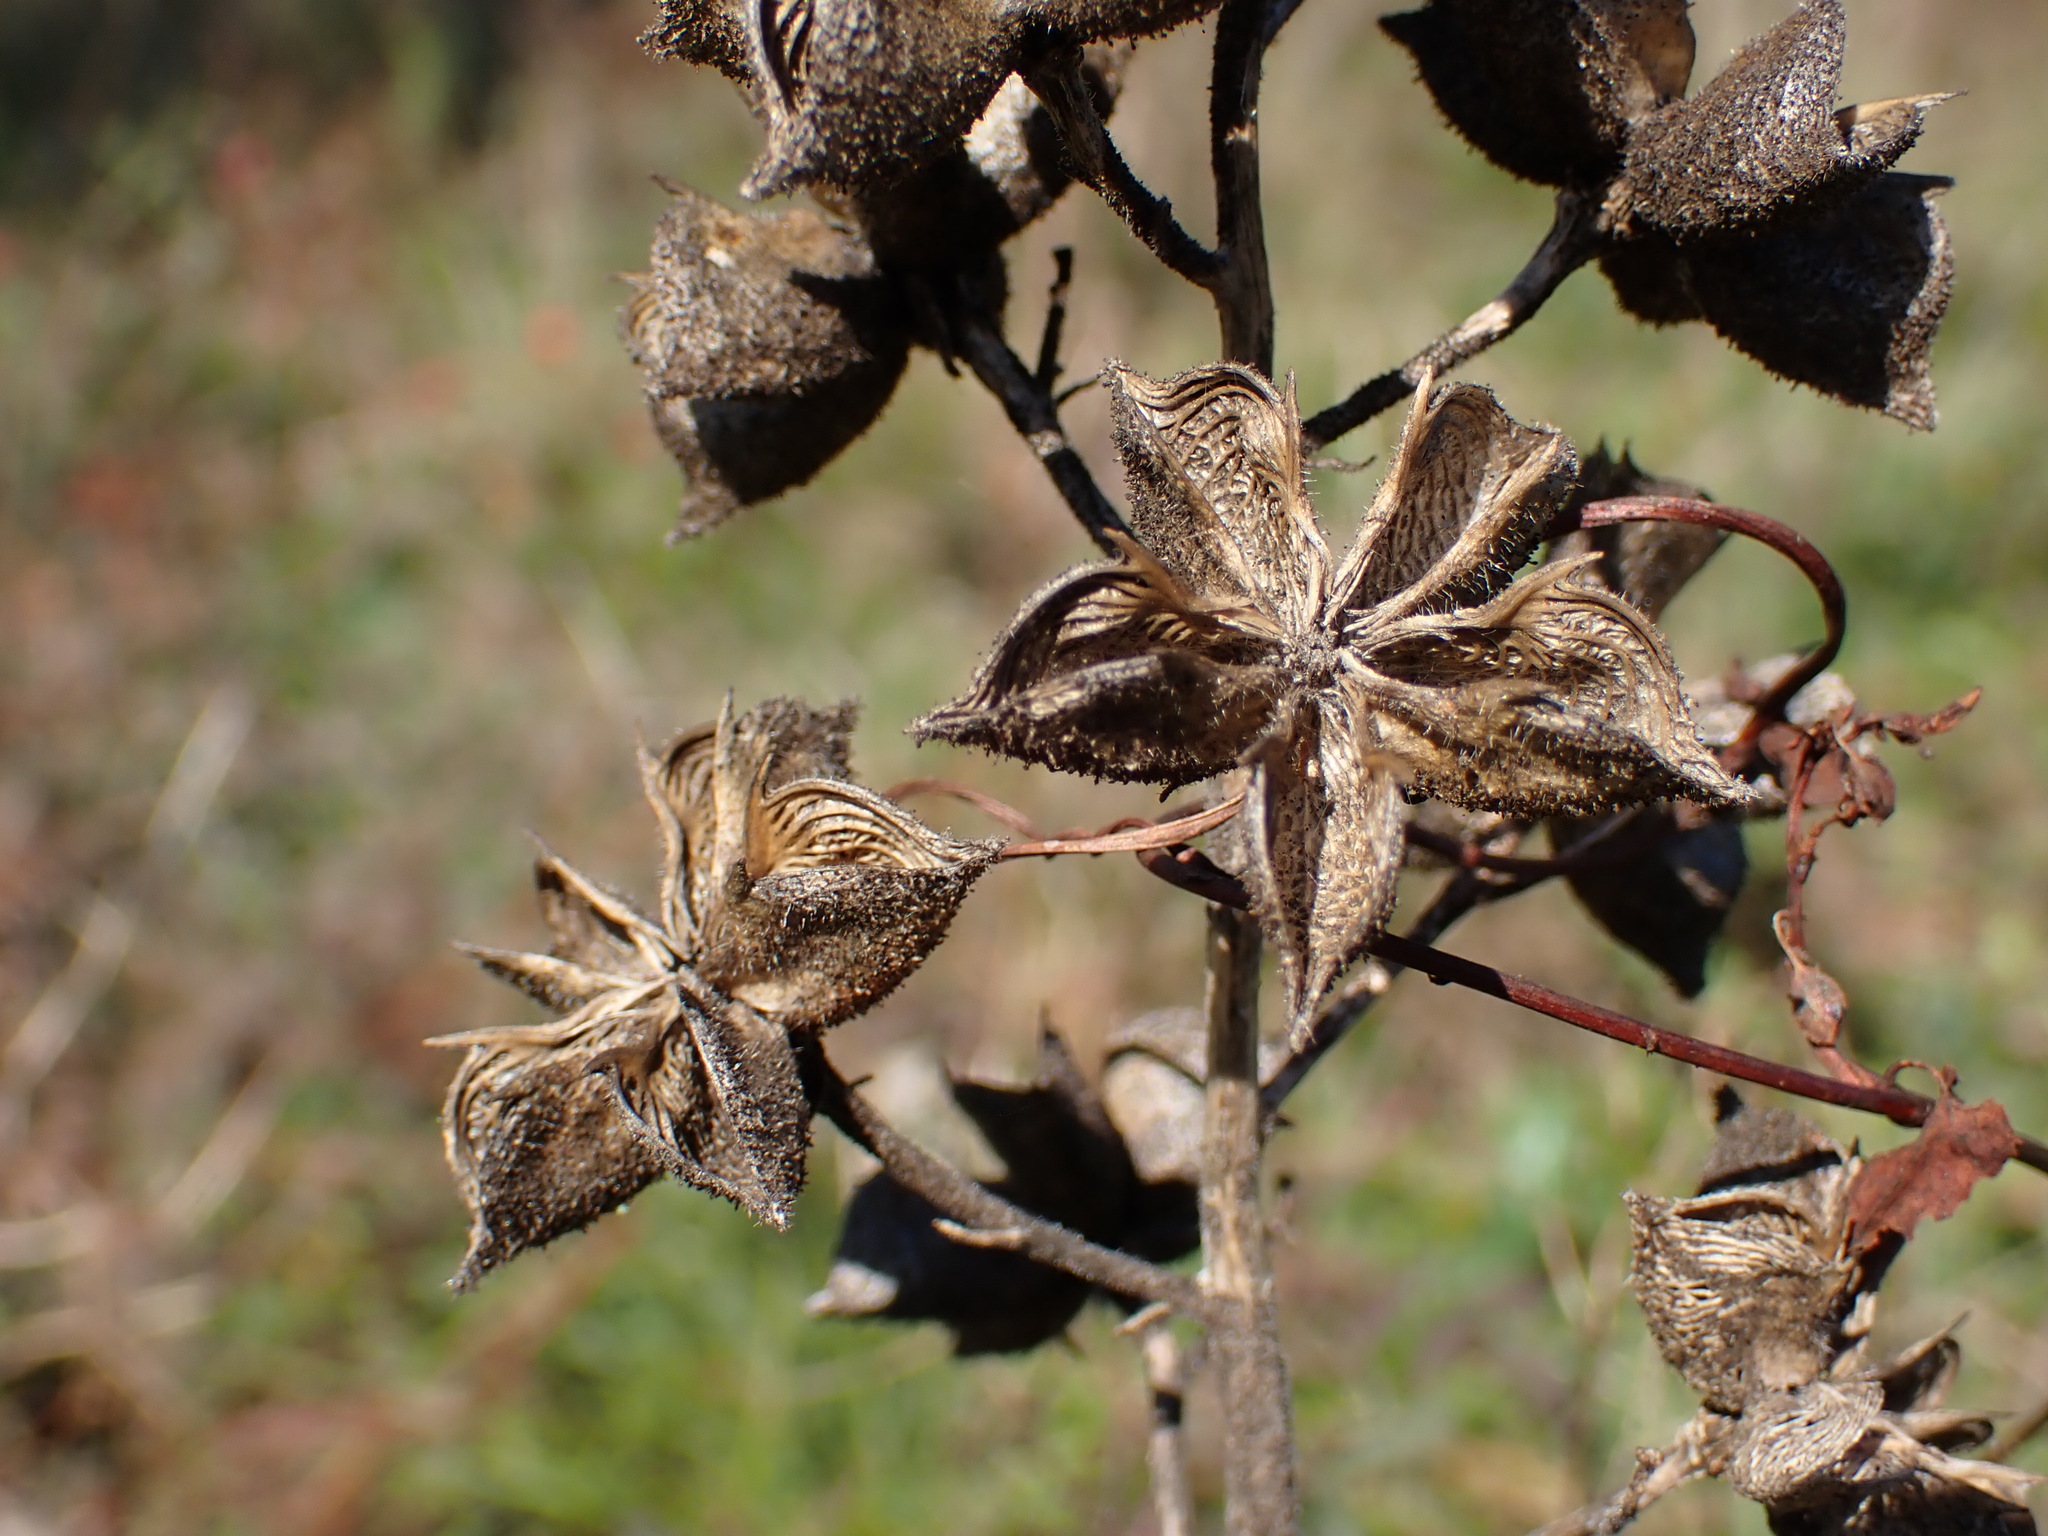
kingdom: Plantae
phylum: Tracheophyta
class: Magnoliopsida
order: Sapindales
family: Rutaceae
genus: Dictamnus
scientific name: Dictamnus albus
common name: Gasplant
